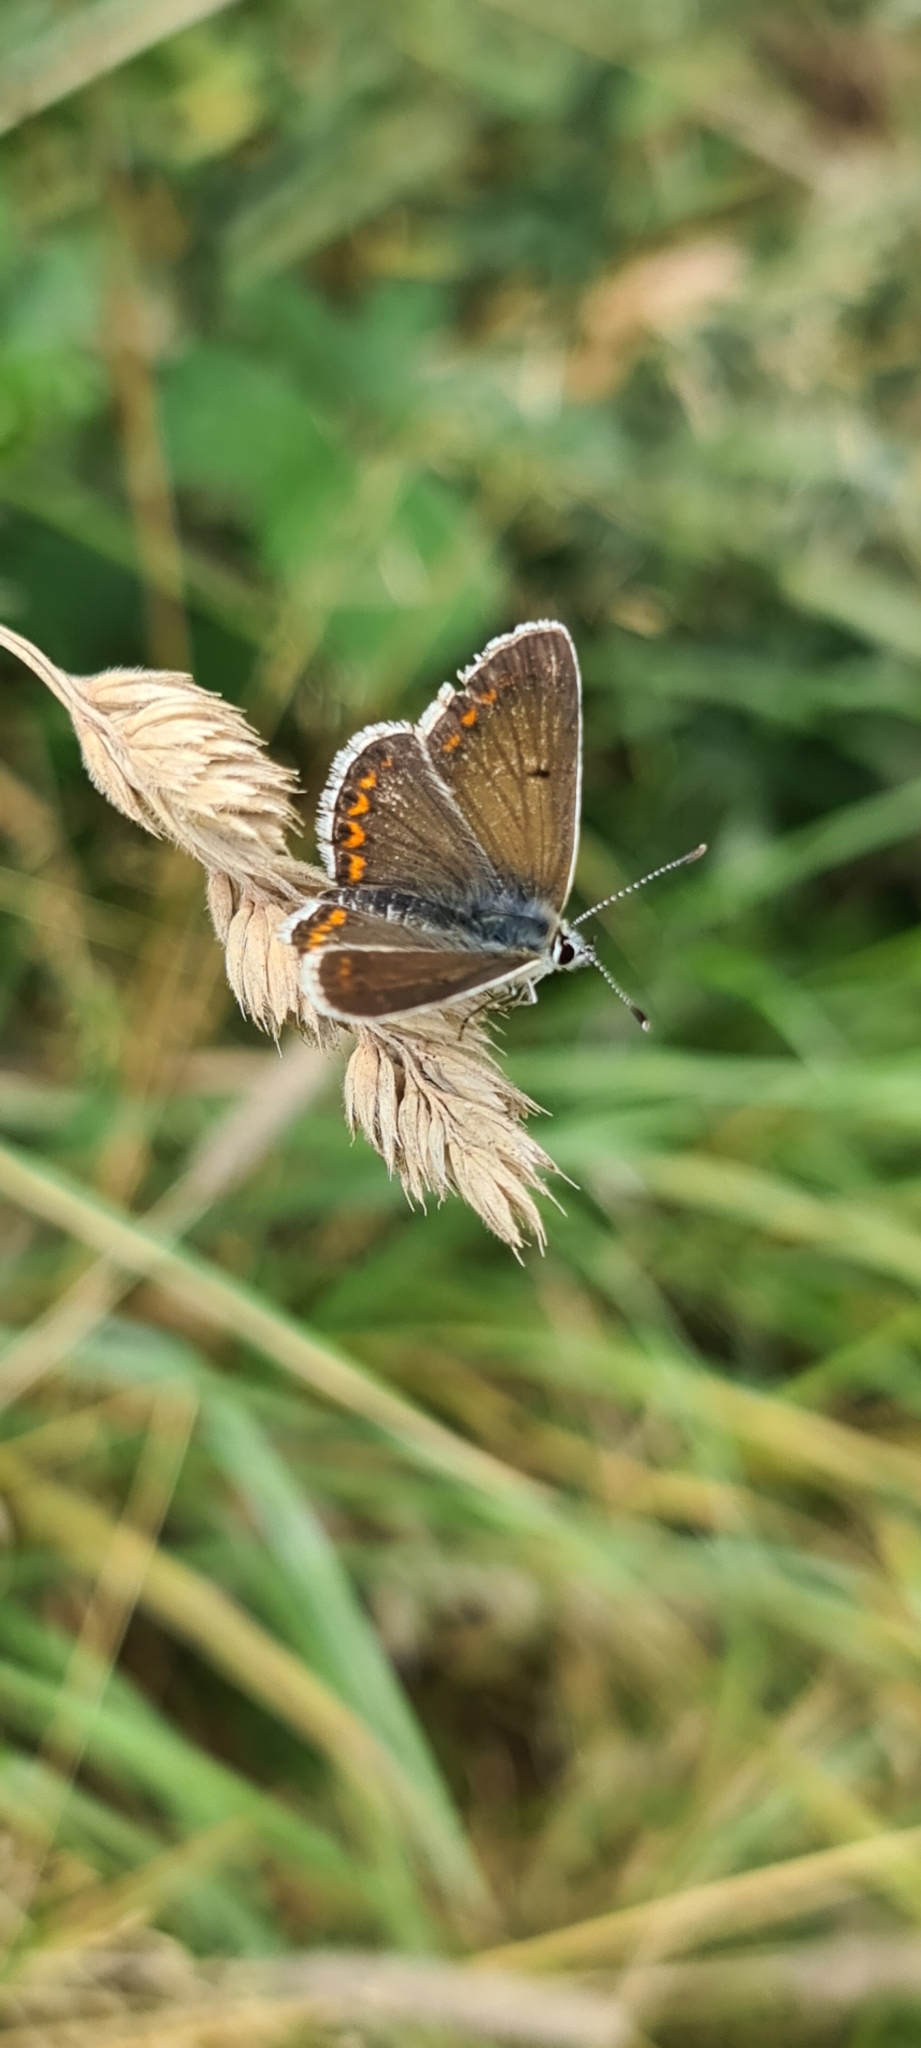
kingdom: Animalia
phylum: Arthropoda
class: Insecta
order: Lepidoptera
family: Lycaenidae
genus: Aricia
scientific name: Aricia agestis
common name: Brown argus
